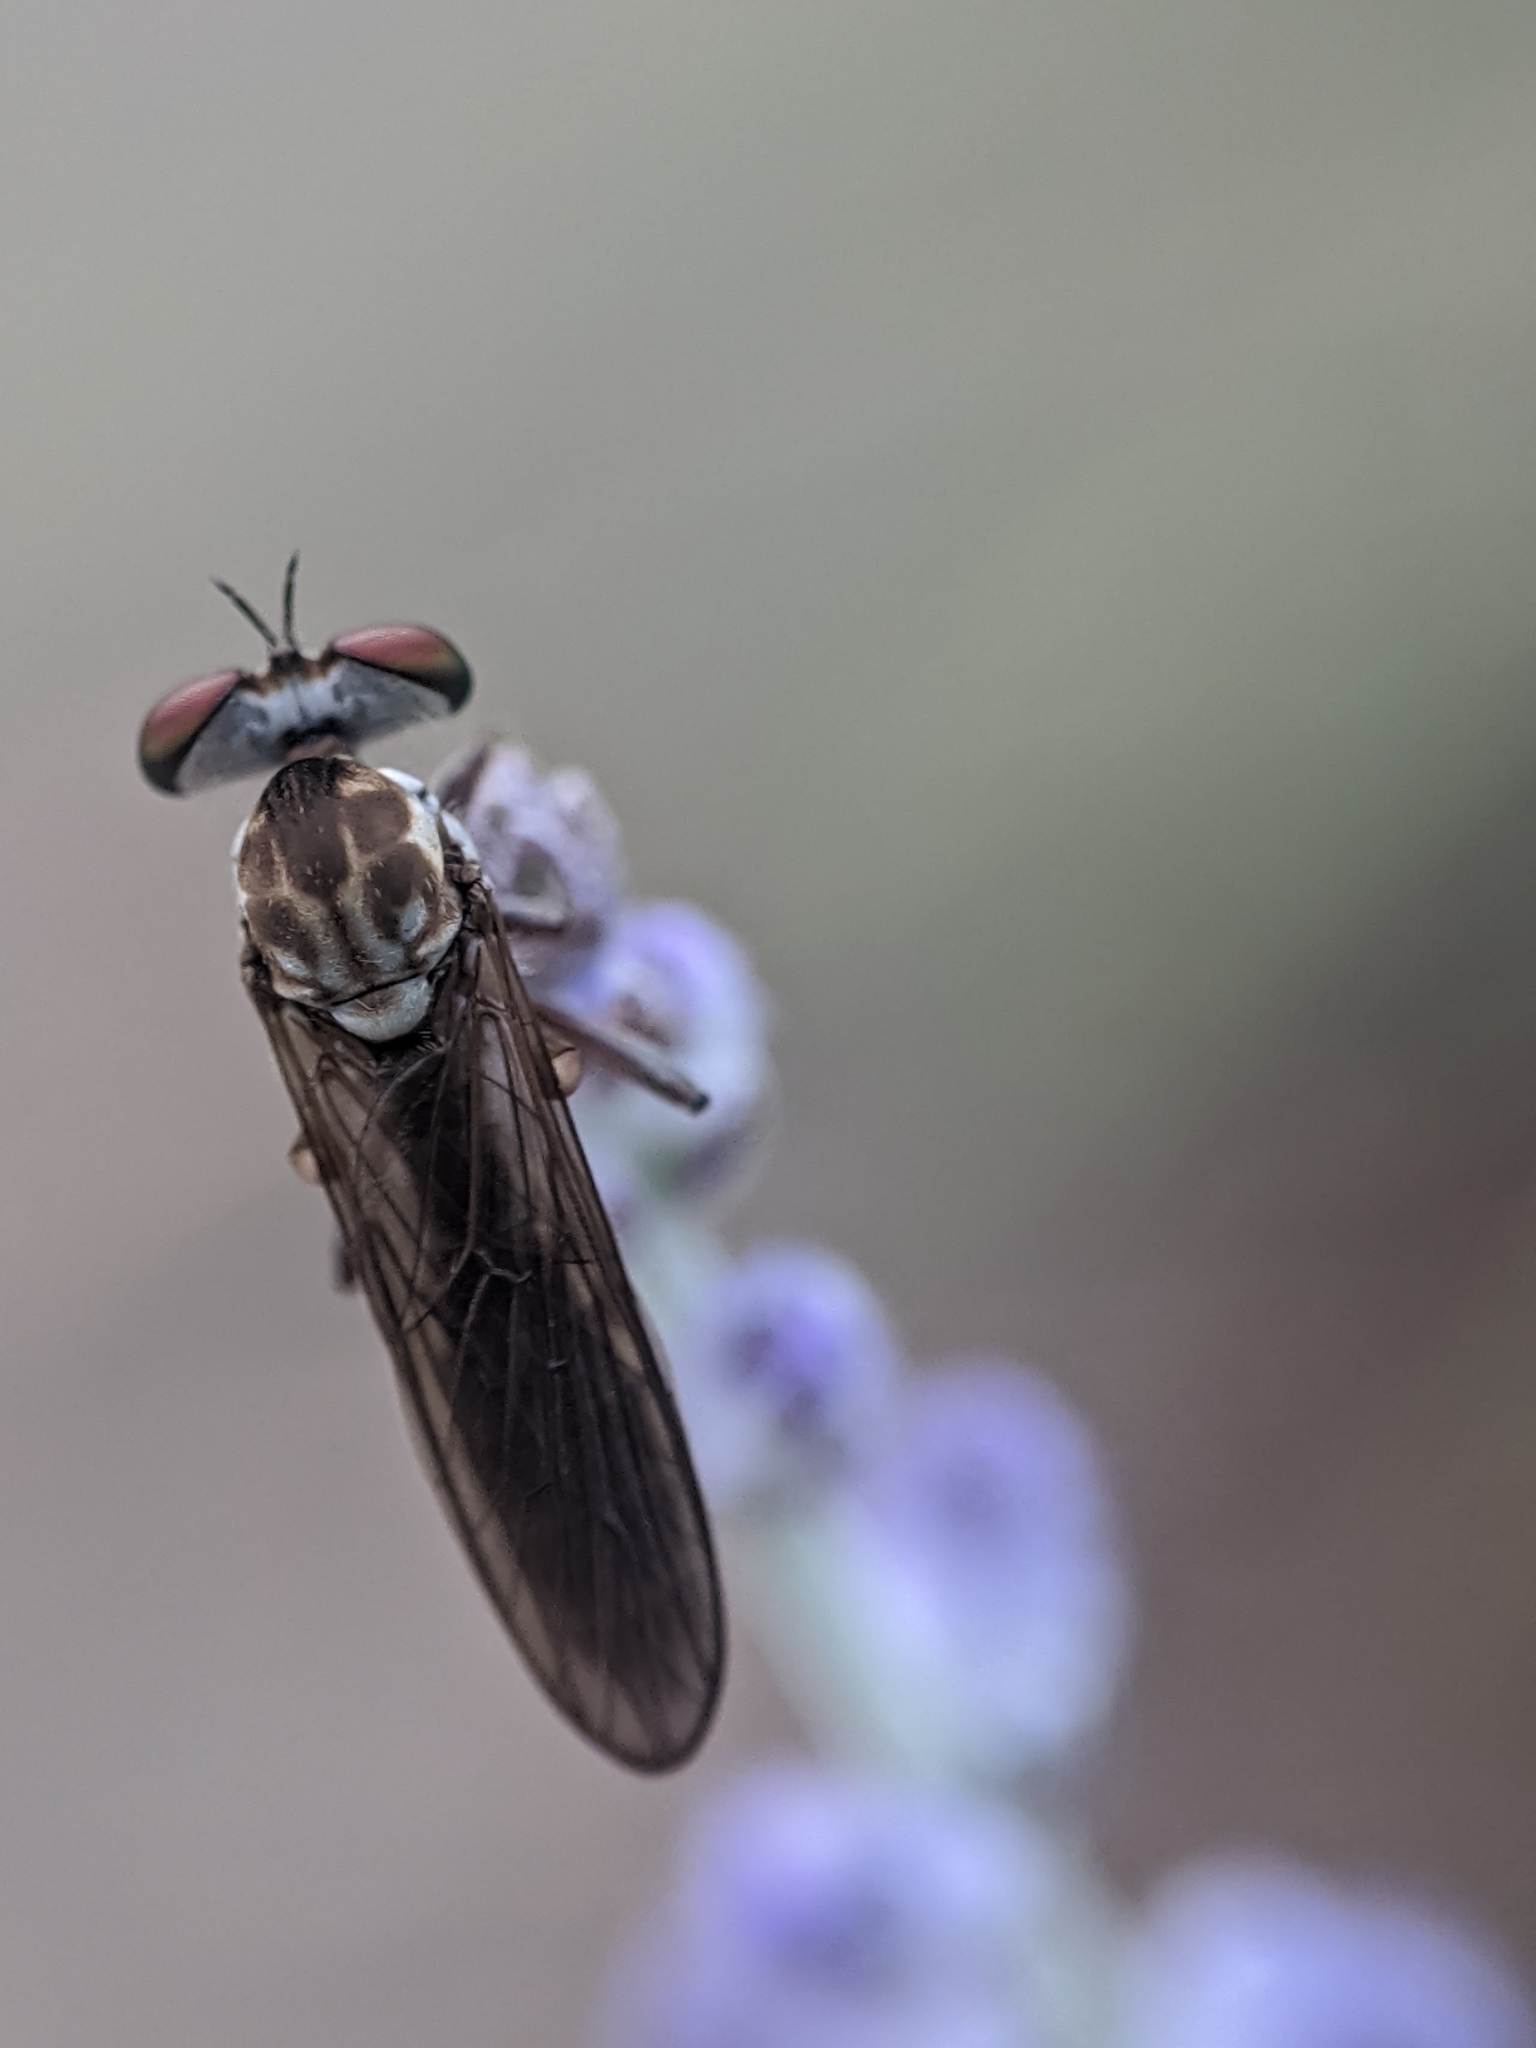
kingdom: Animalia
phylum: Arthropoda
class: Insecta
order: Diptera
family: Asilidae
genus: Holcocephala
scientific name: Holcocephala calva
